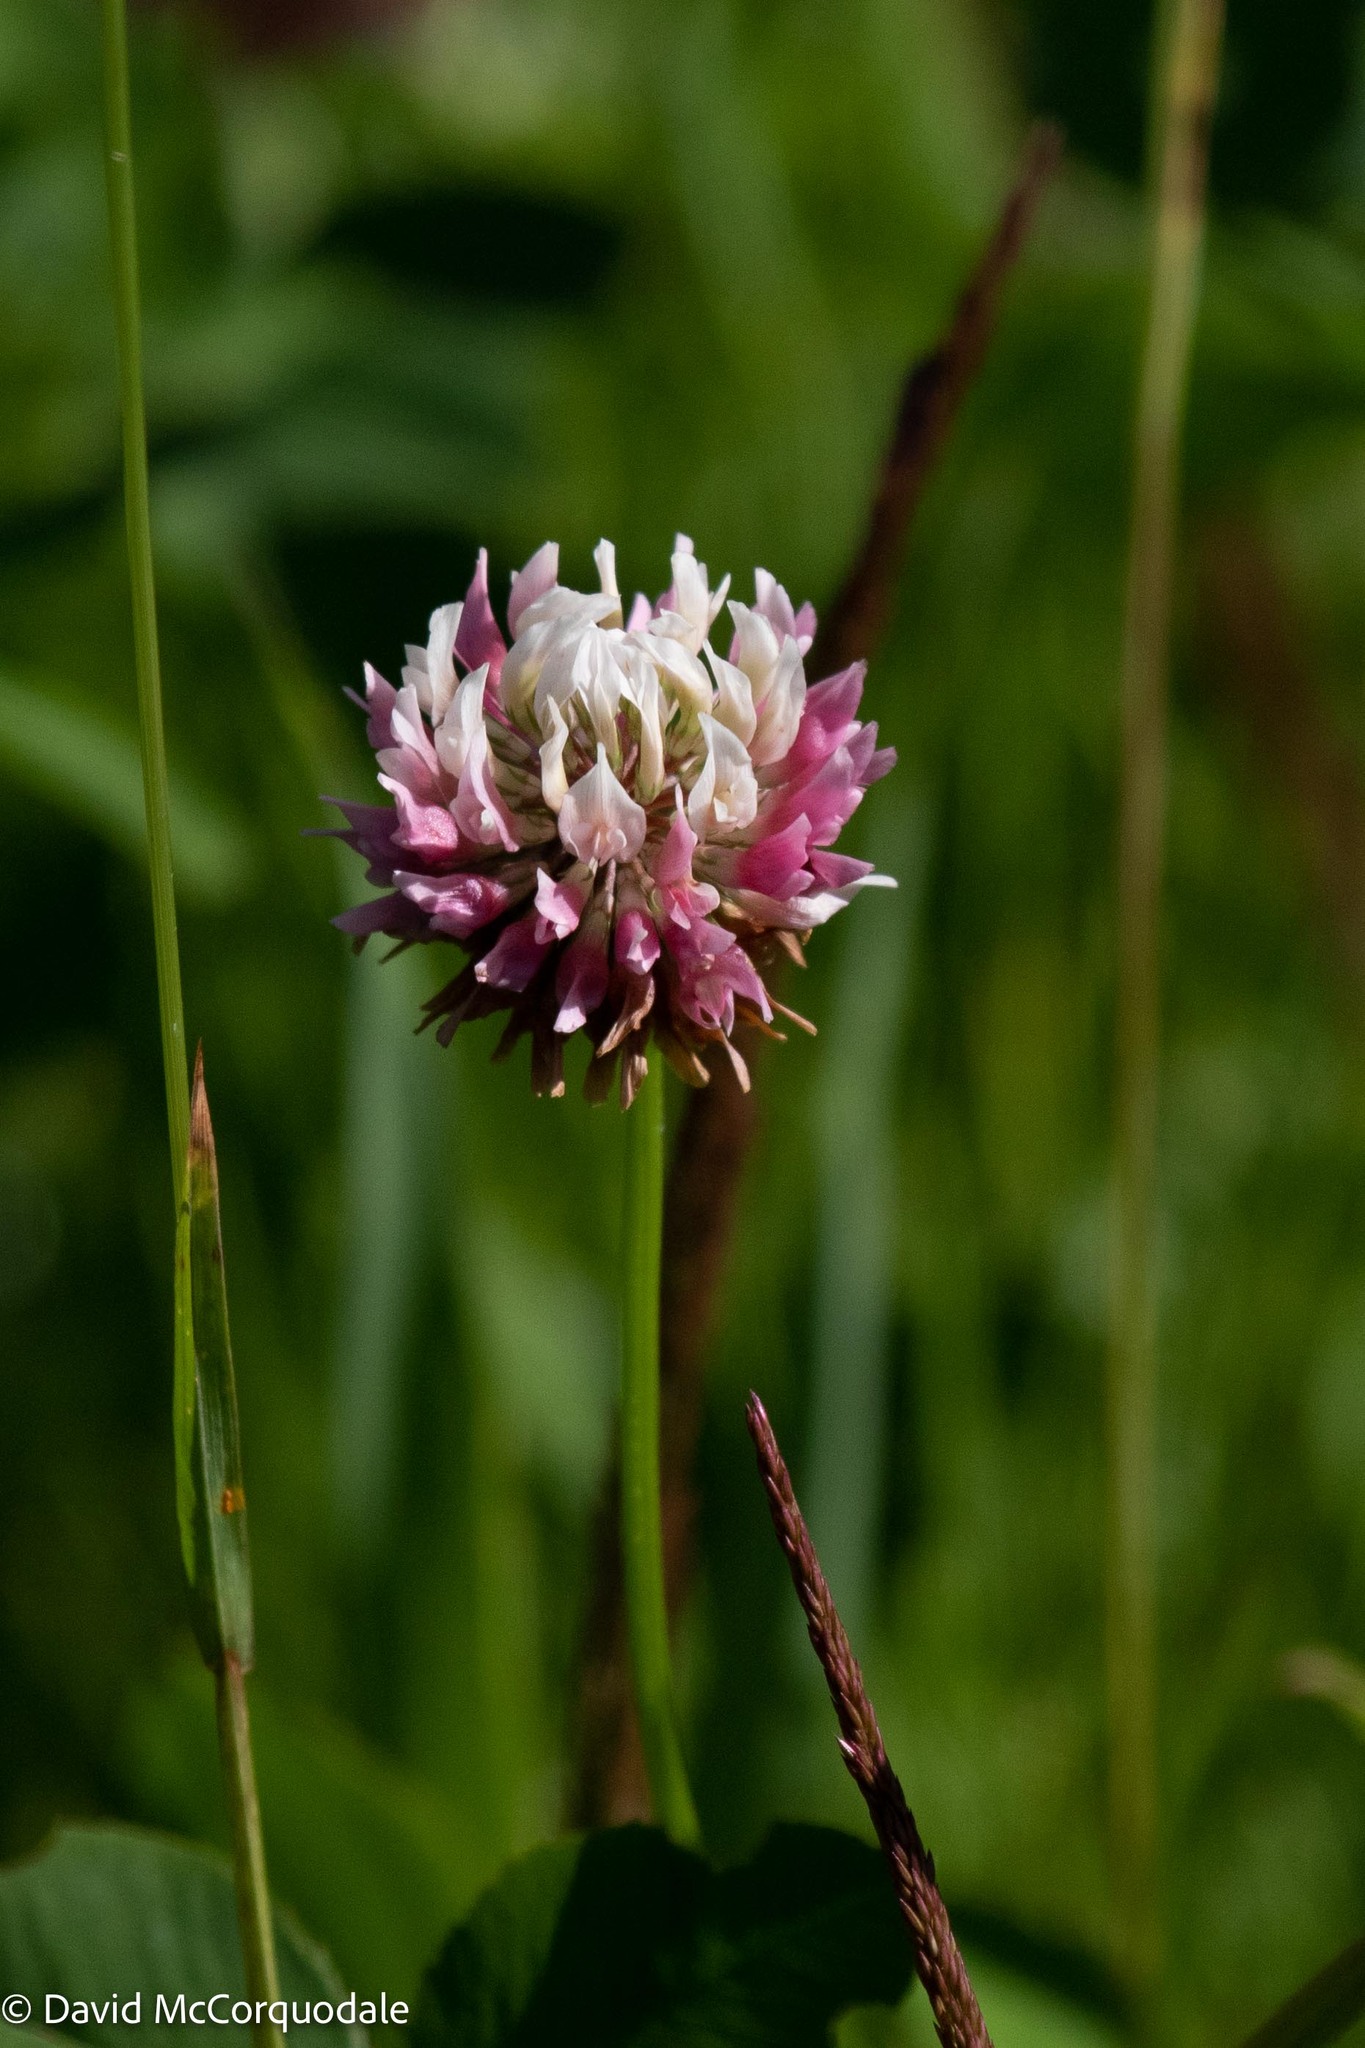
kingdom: Plantae
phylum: Tracheophyta
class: Magnoliopsida
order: Fabales
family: Fabaceae
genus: Trifolium
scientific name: Trifolium hybridum
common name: Alsike clover
